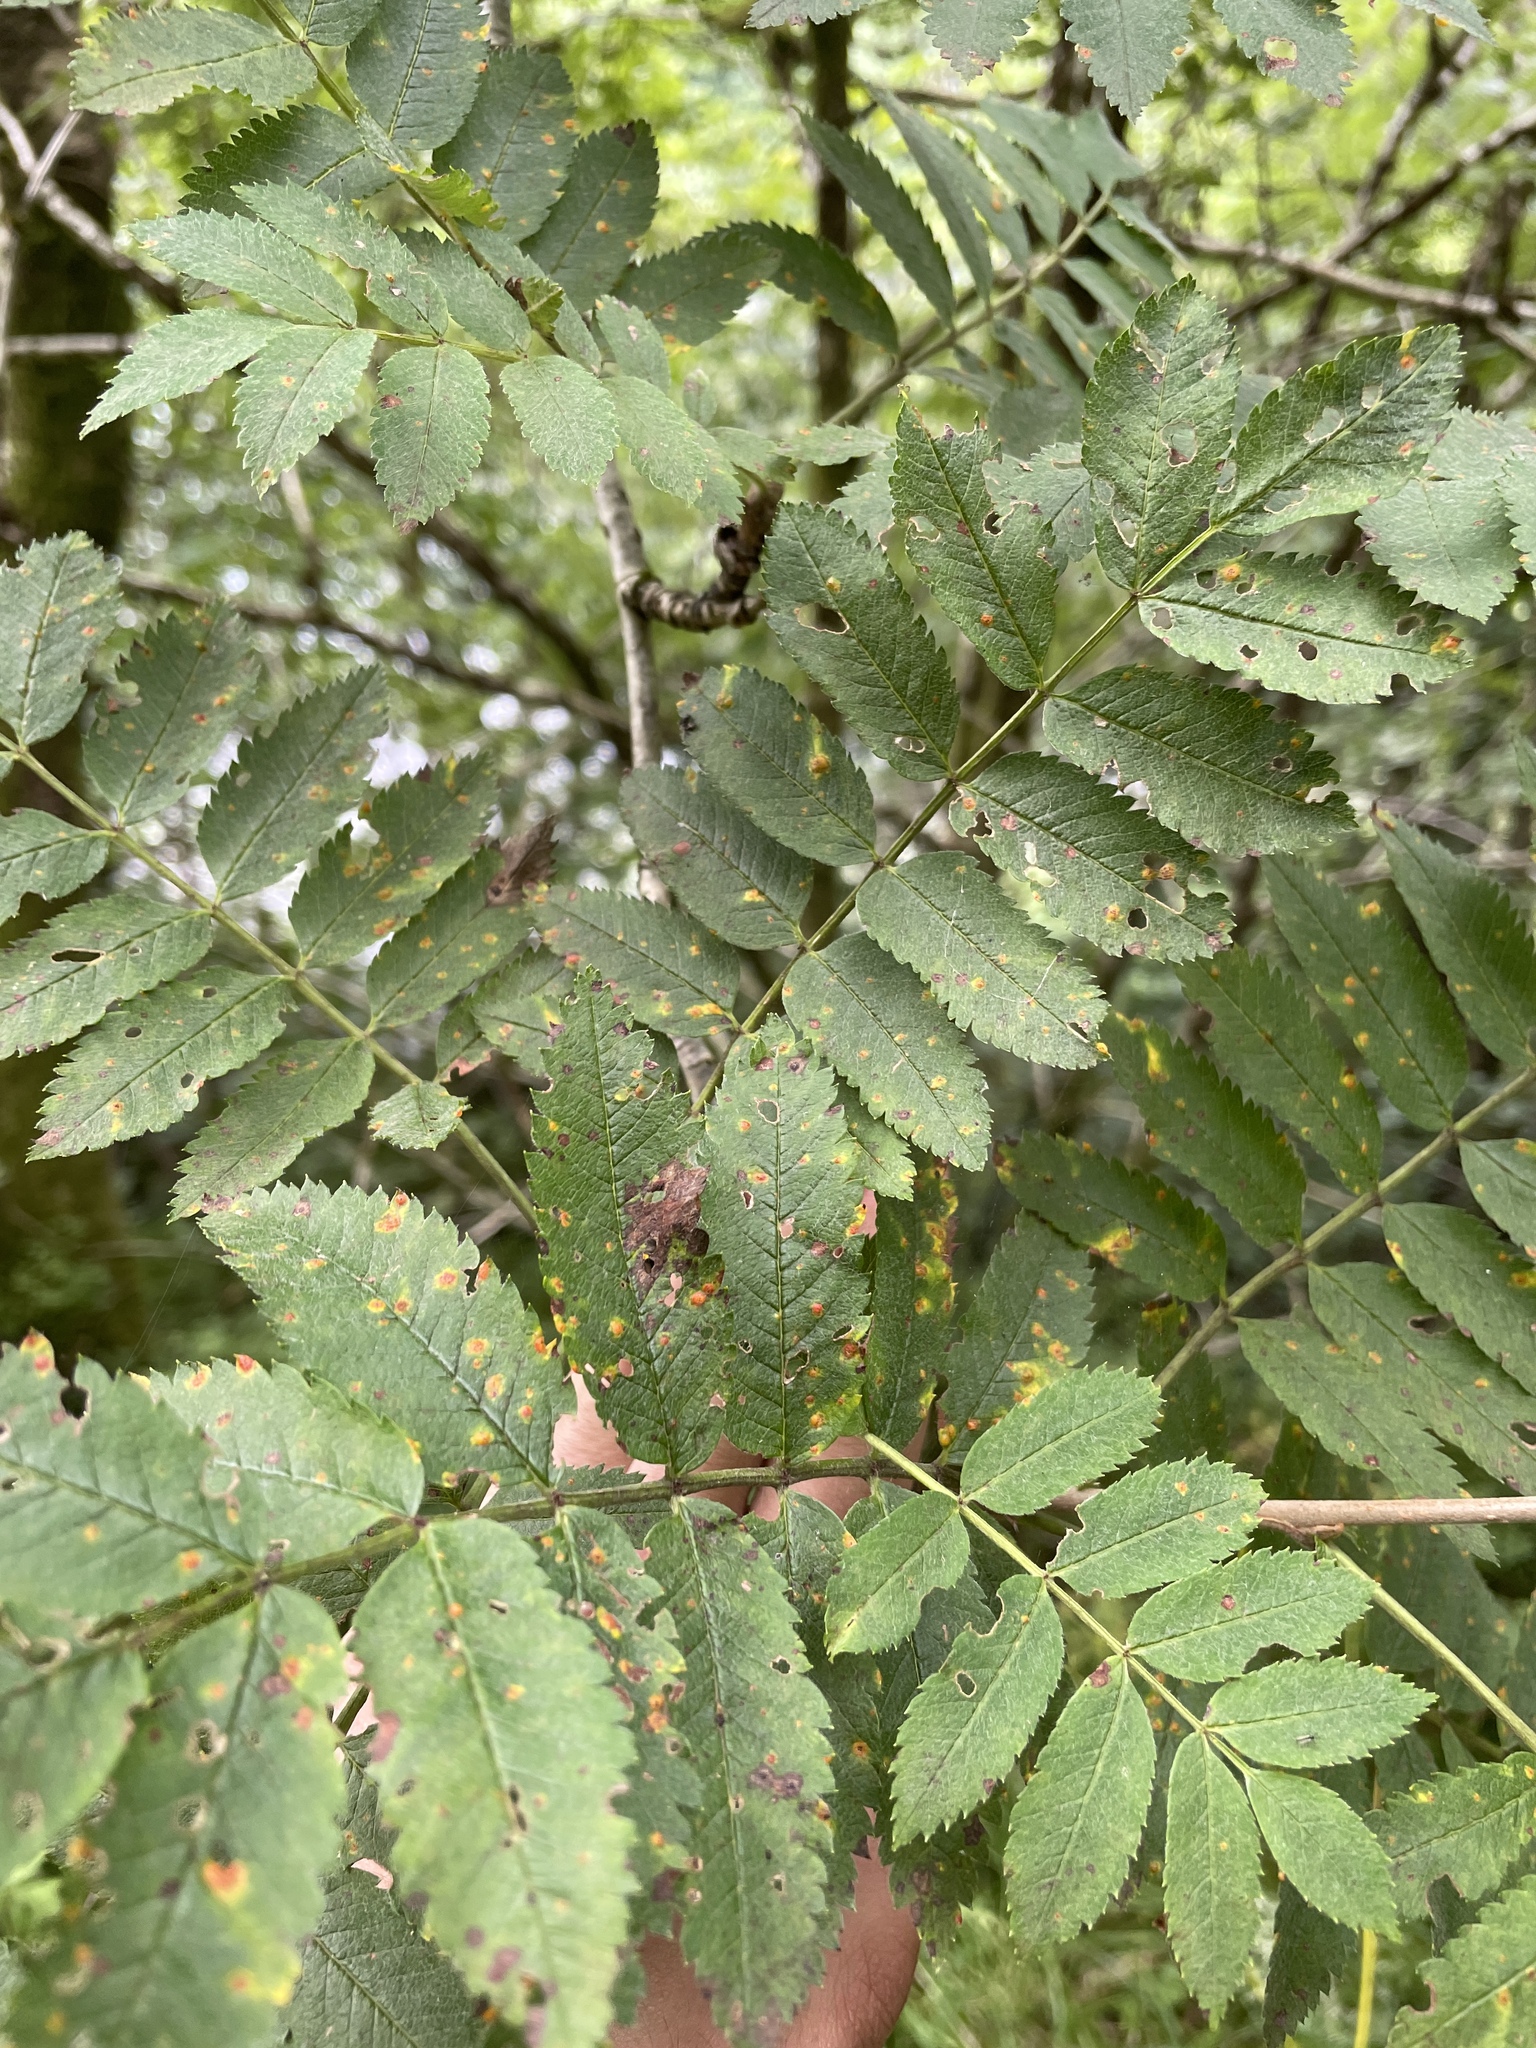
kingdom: Plantae
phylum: Tracheophyta
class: Magnoliopsida
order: Rosales
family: Rosaceae
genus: Sorbus
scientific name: Sorbus aucuparia
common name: Rowan
